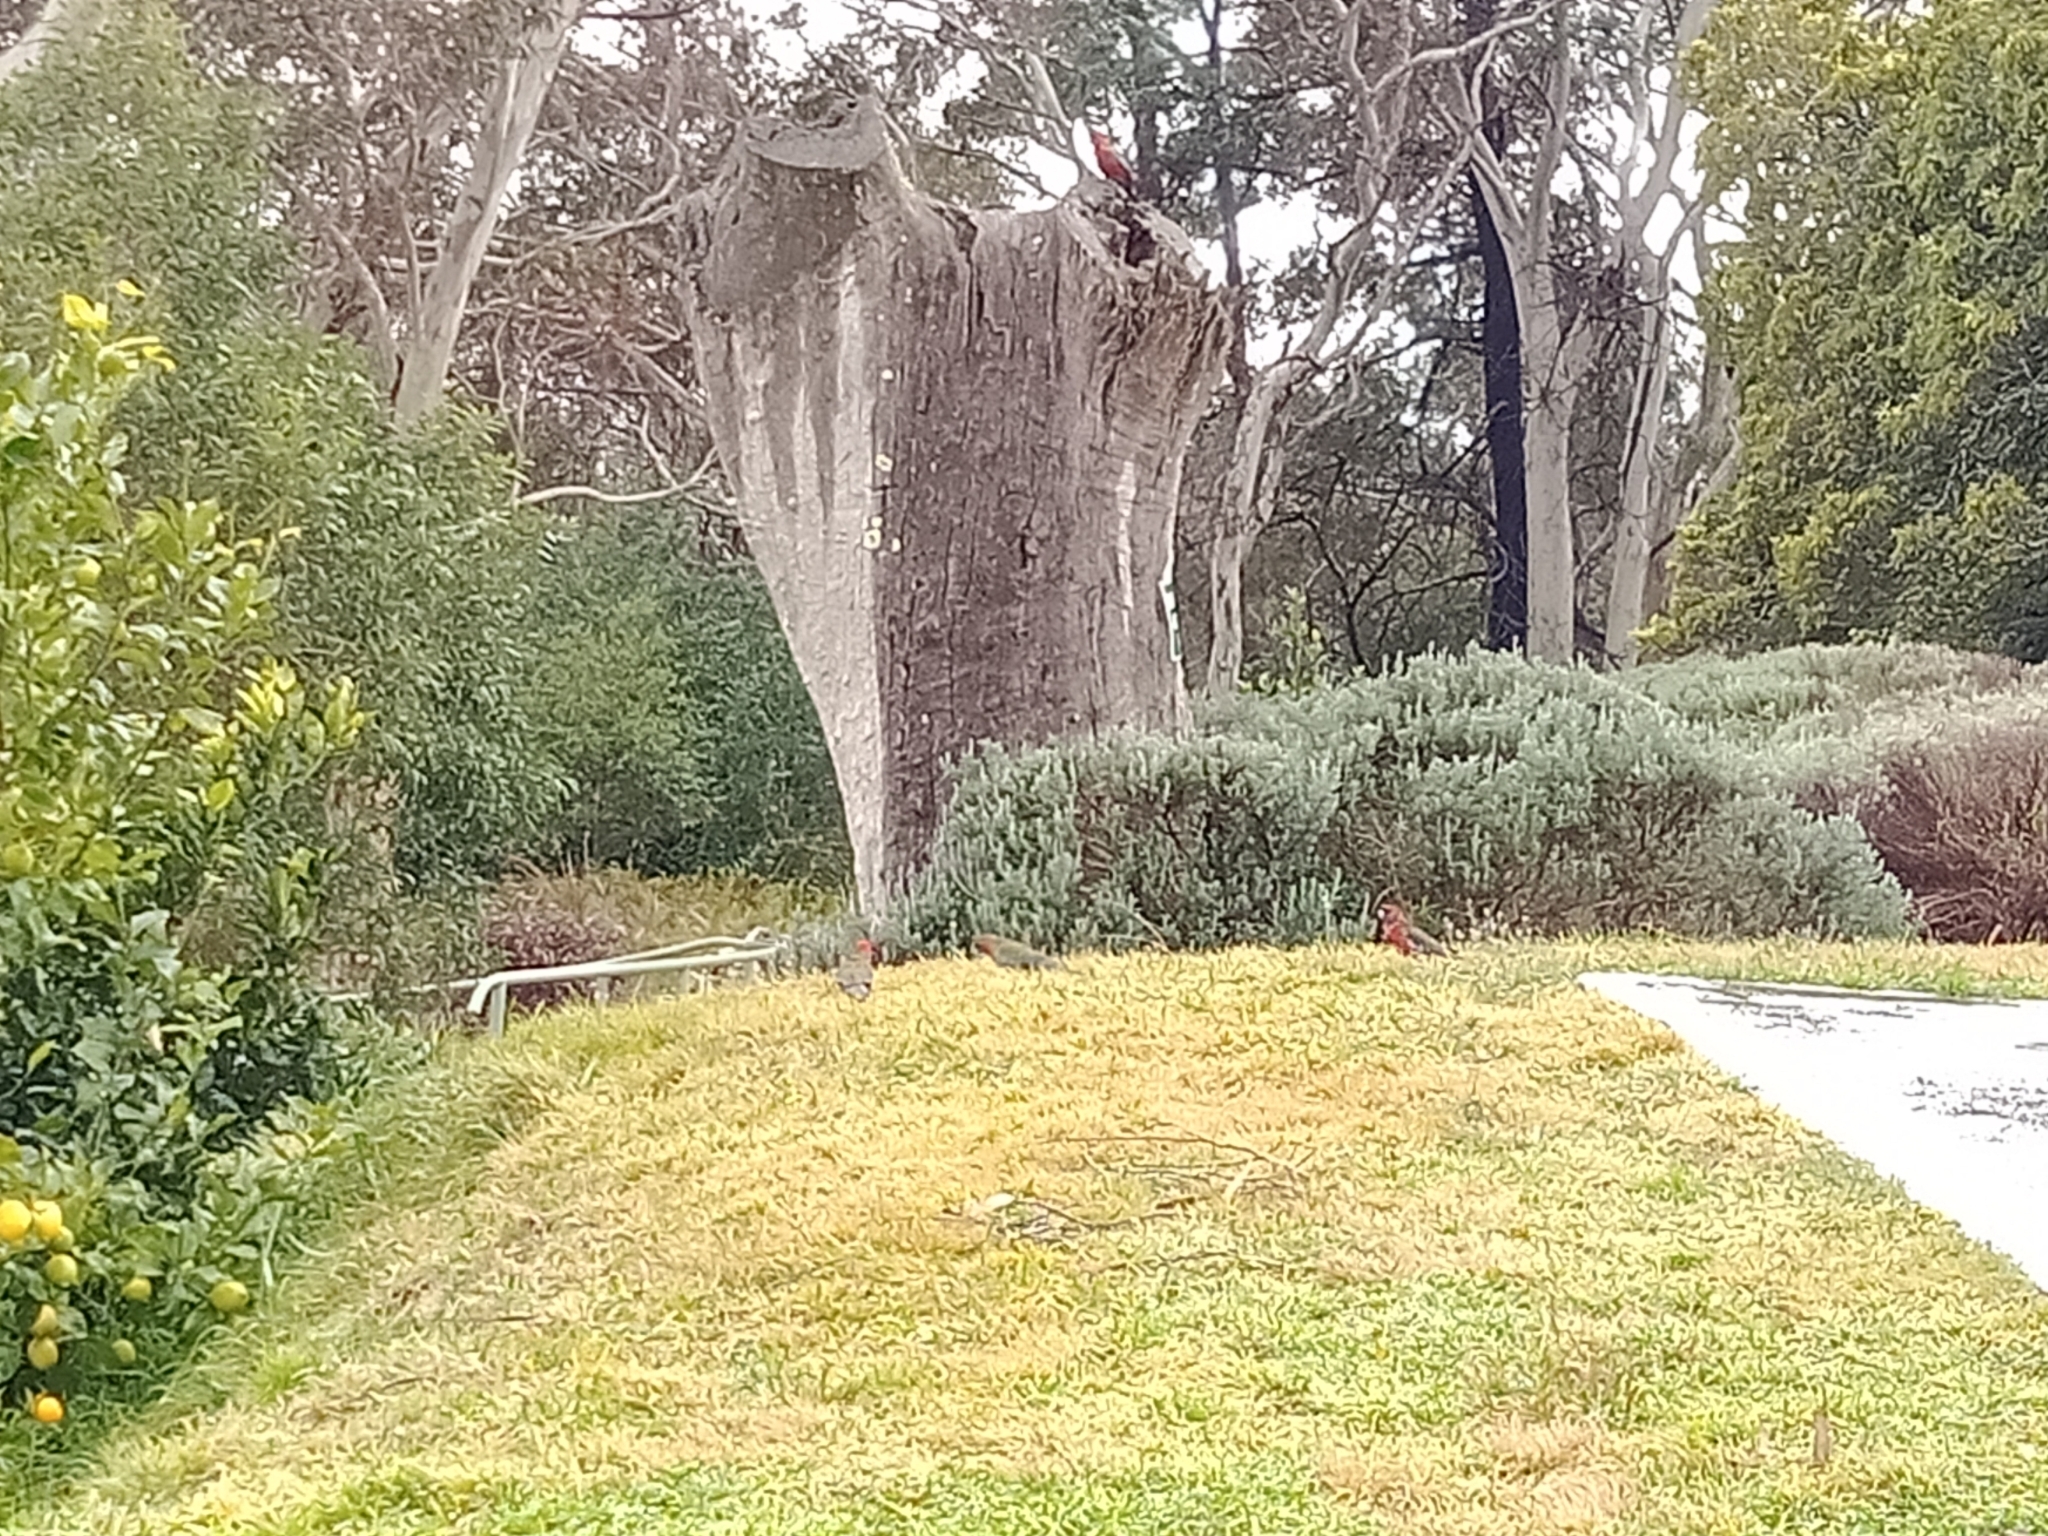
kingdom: Animalia
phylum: Chordata
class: Aves
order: Psittaciformes
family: Psittacidae
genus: Platycercus
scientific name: Platycercus elegans
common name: Crimson rosella
